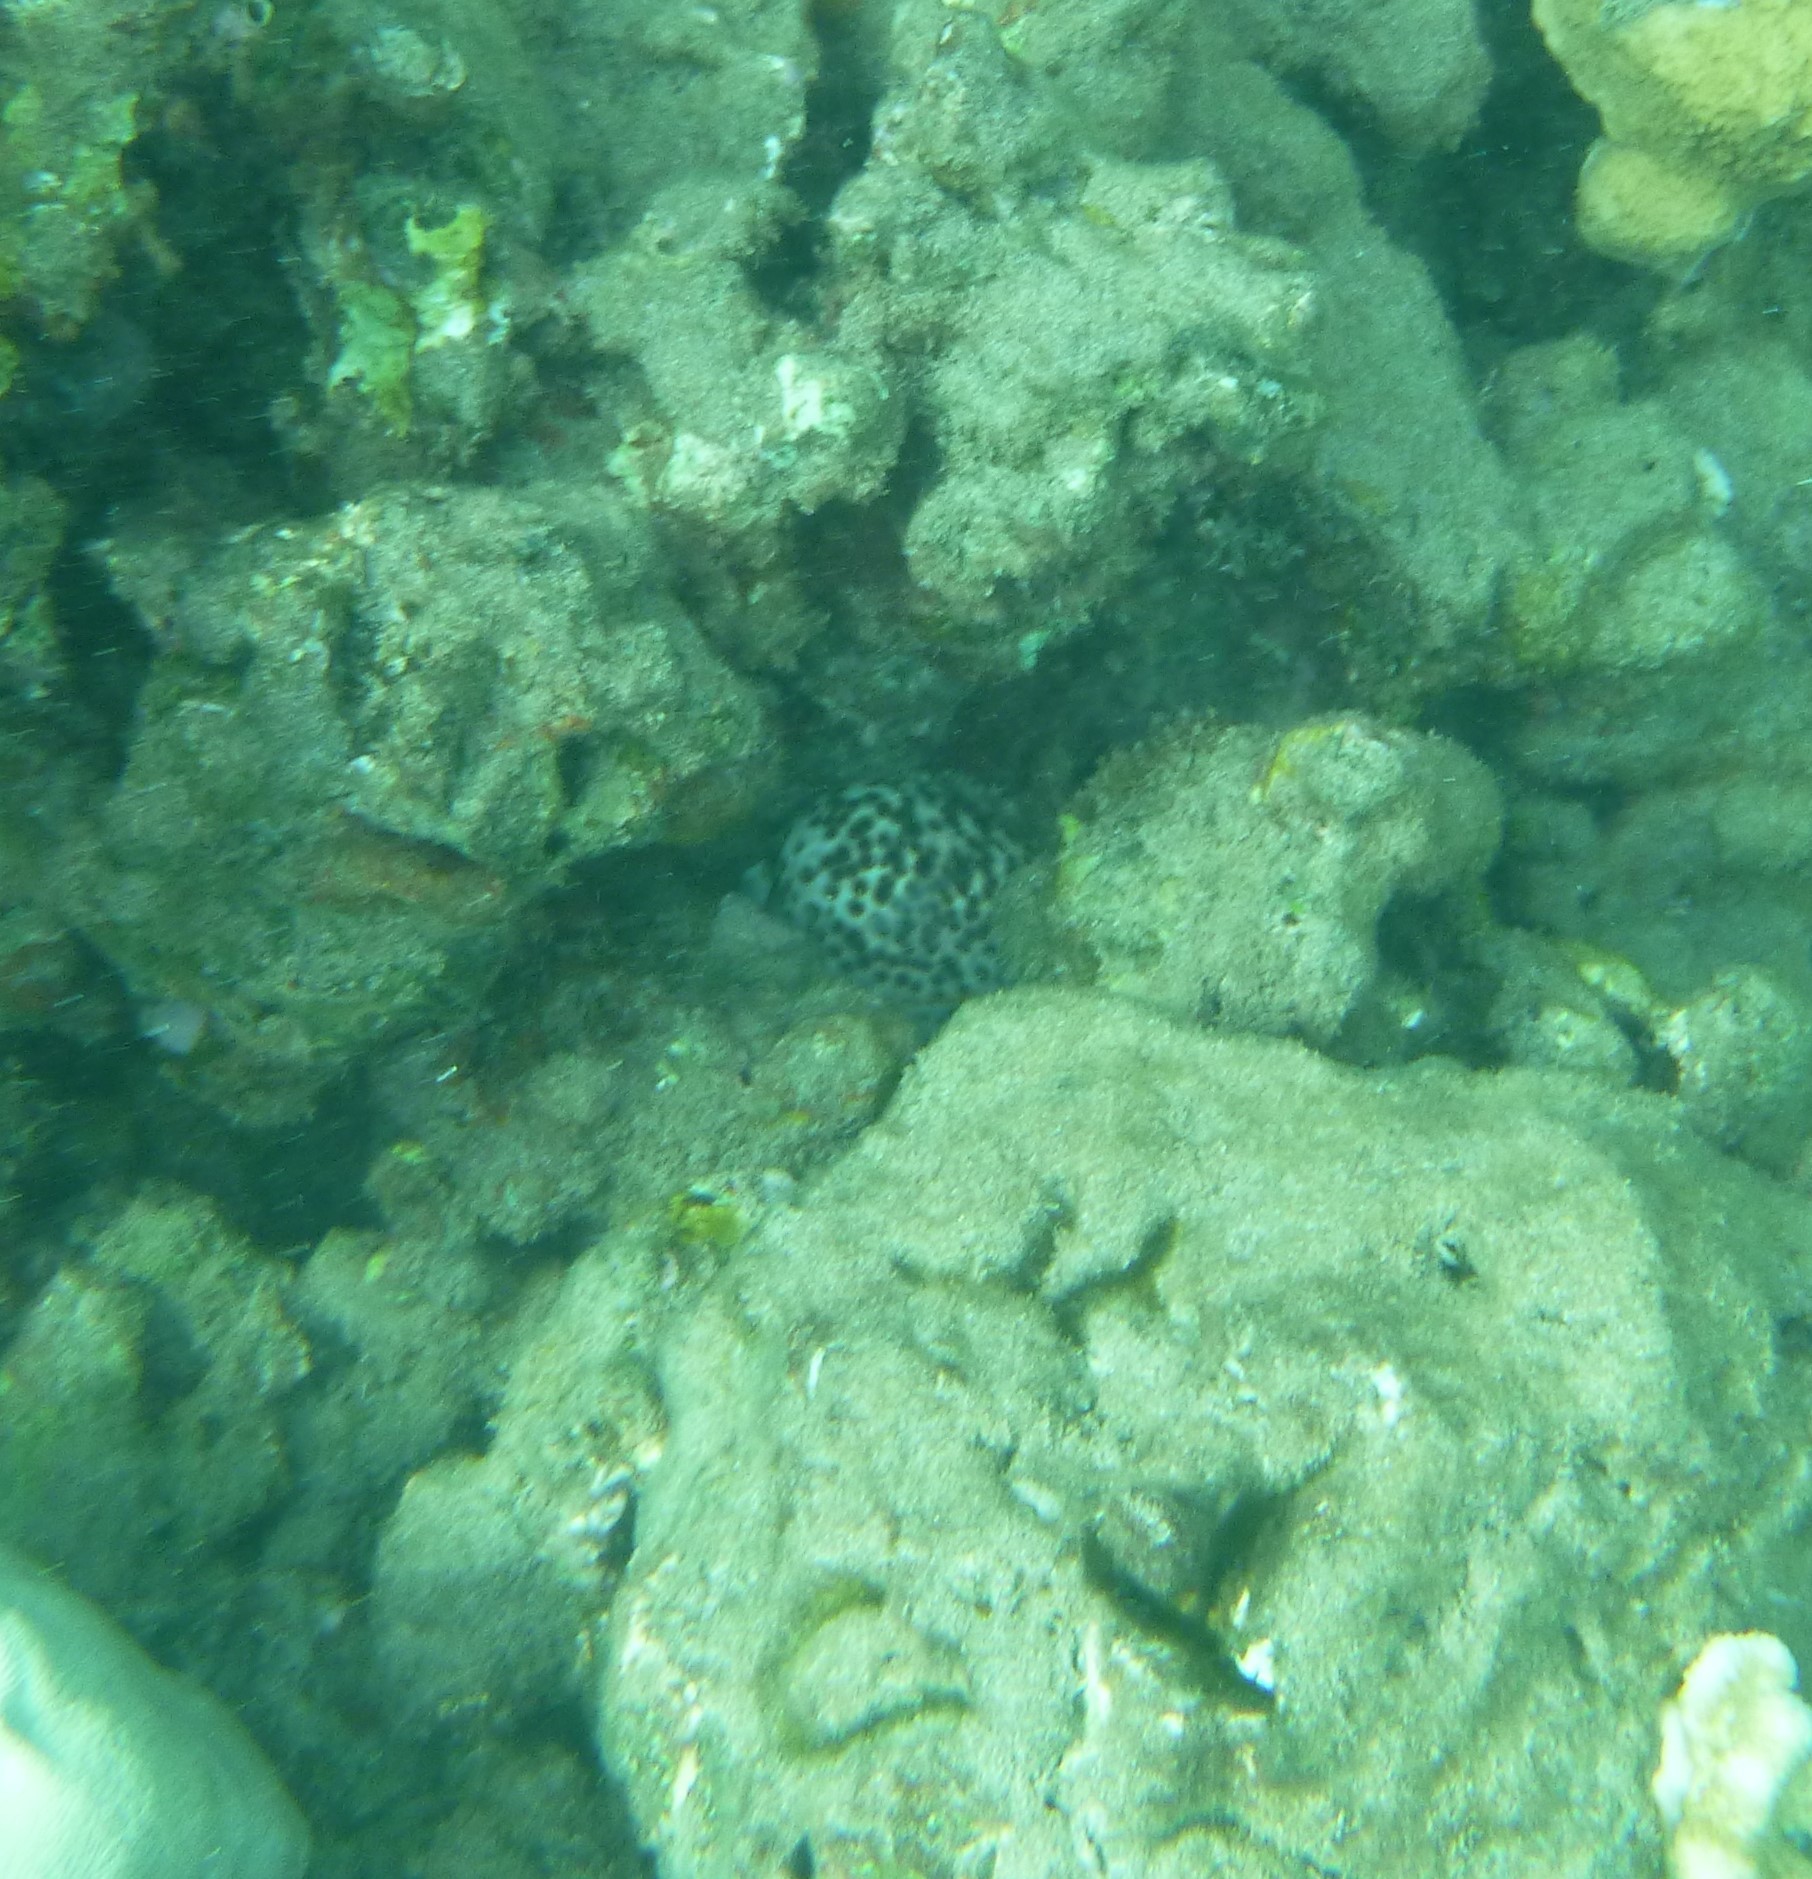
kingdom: Animalia
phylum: Mollusca
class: Gastropoda
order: Littorinimorpha
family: Cypraeidae
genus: Cypraea
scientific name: Cypraea tigris
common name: Tiger cowrie
